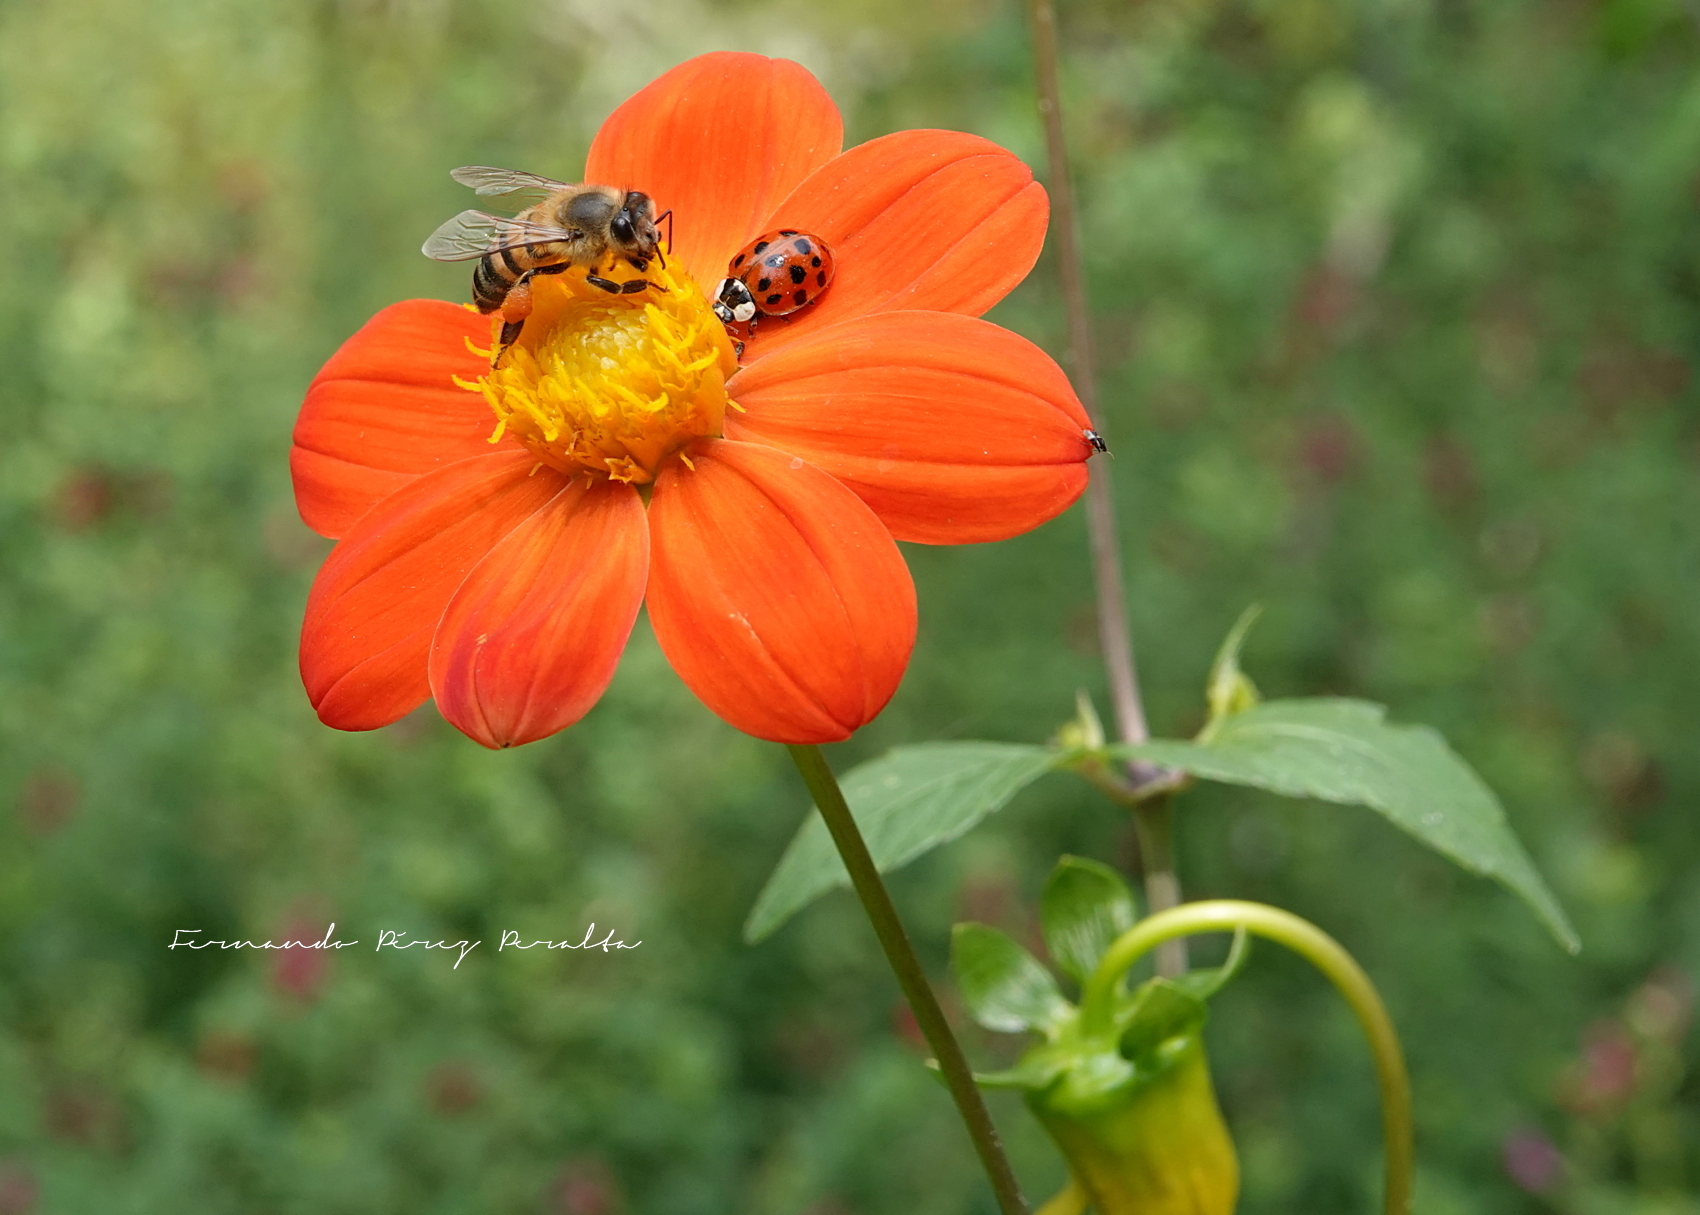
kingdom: Plantae
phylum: Tracheophyta
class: Magnoliopsida
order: Asterales
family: Asteraceae
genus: Dahlia
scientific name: Dahlia coccinea
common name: Red dahlia
